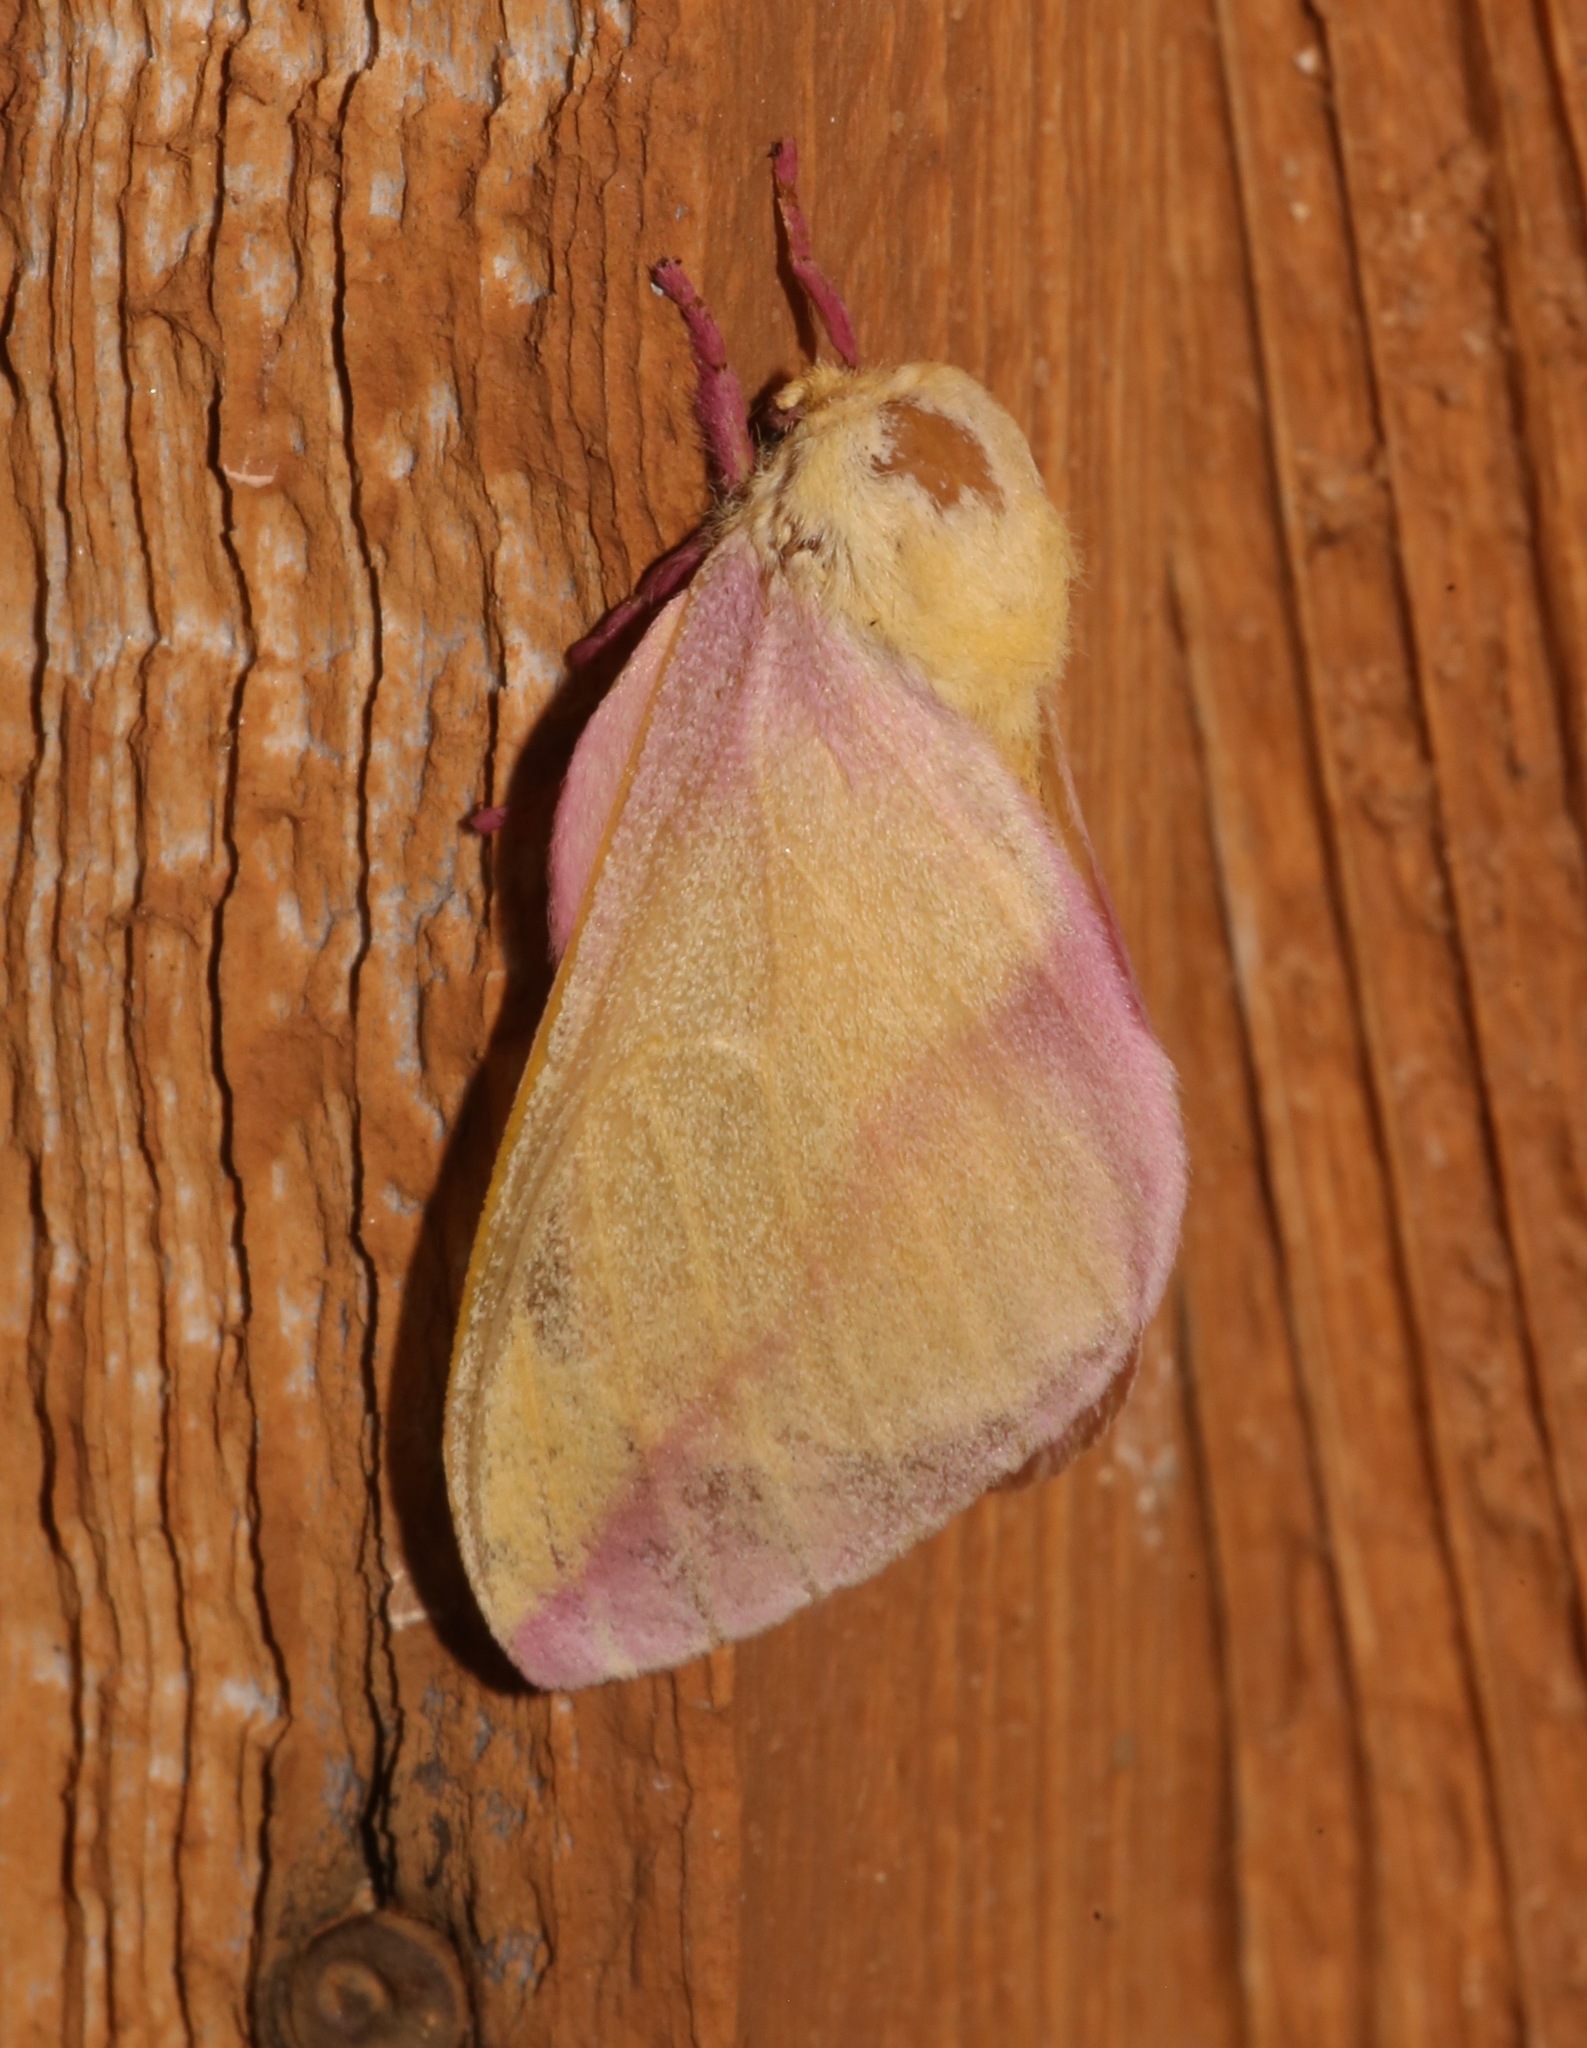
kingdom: Animalia
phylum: Arthropoda
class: Insecta
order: Lepidoptera
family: Saturniidae
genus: Dryocampa
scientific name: Dryocampa rubicunda
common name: Rosy maple moth
